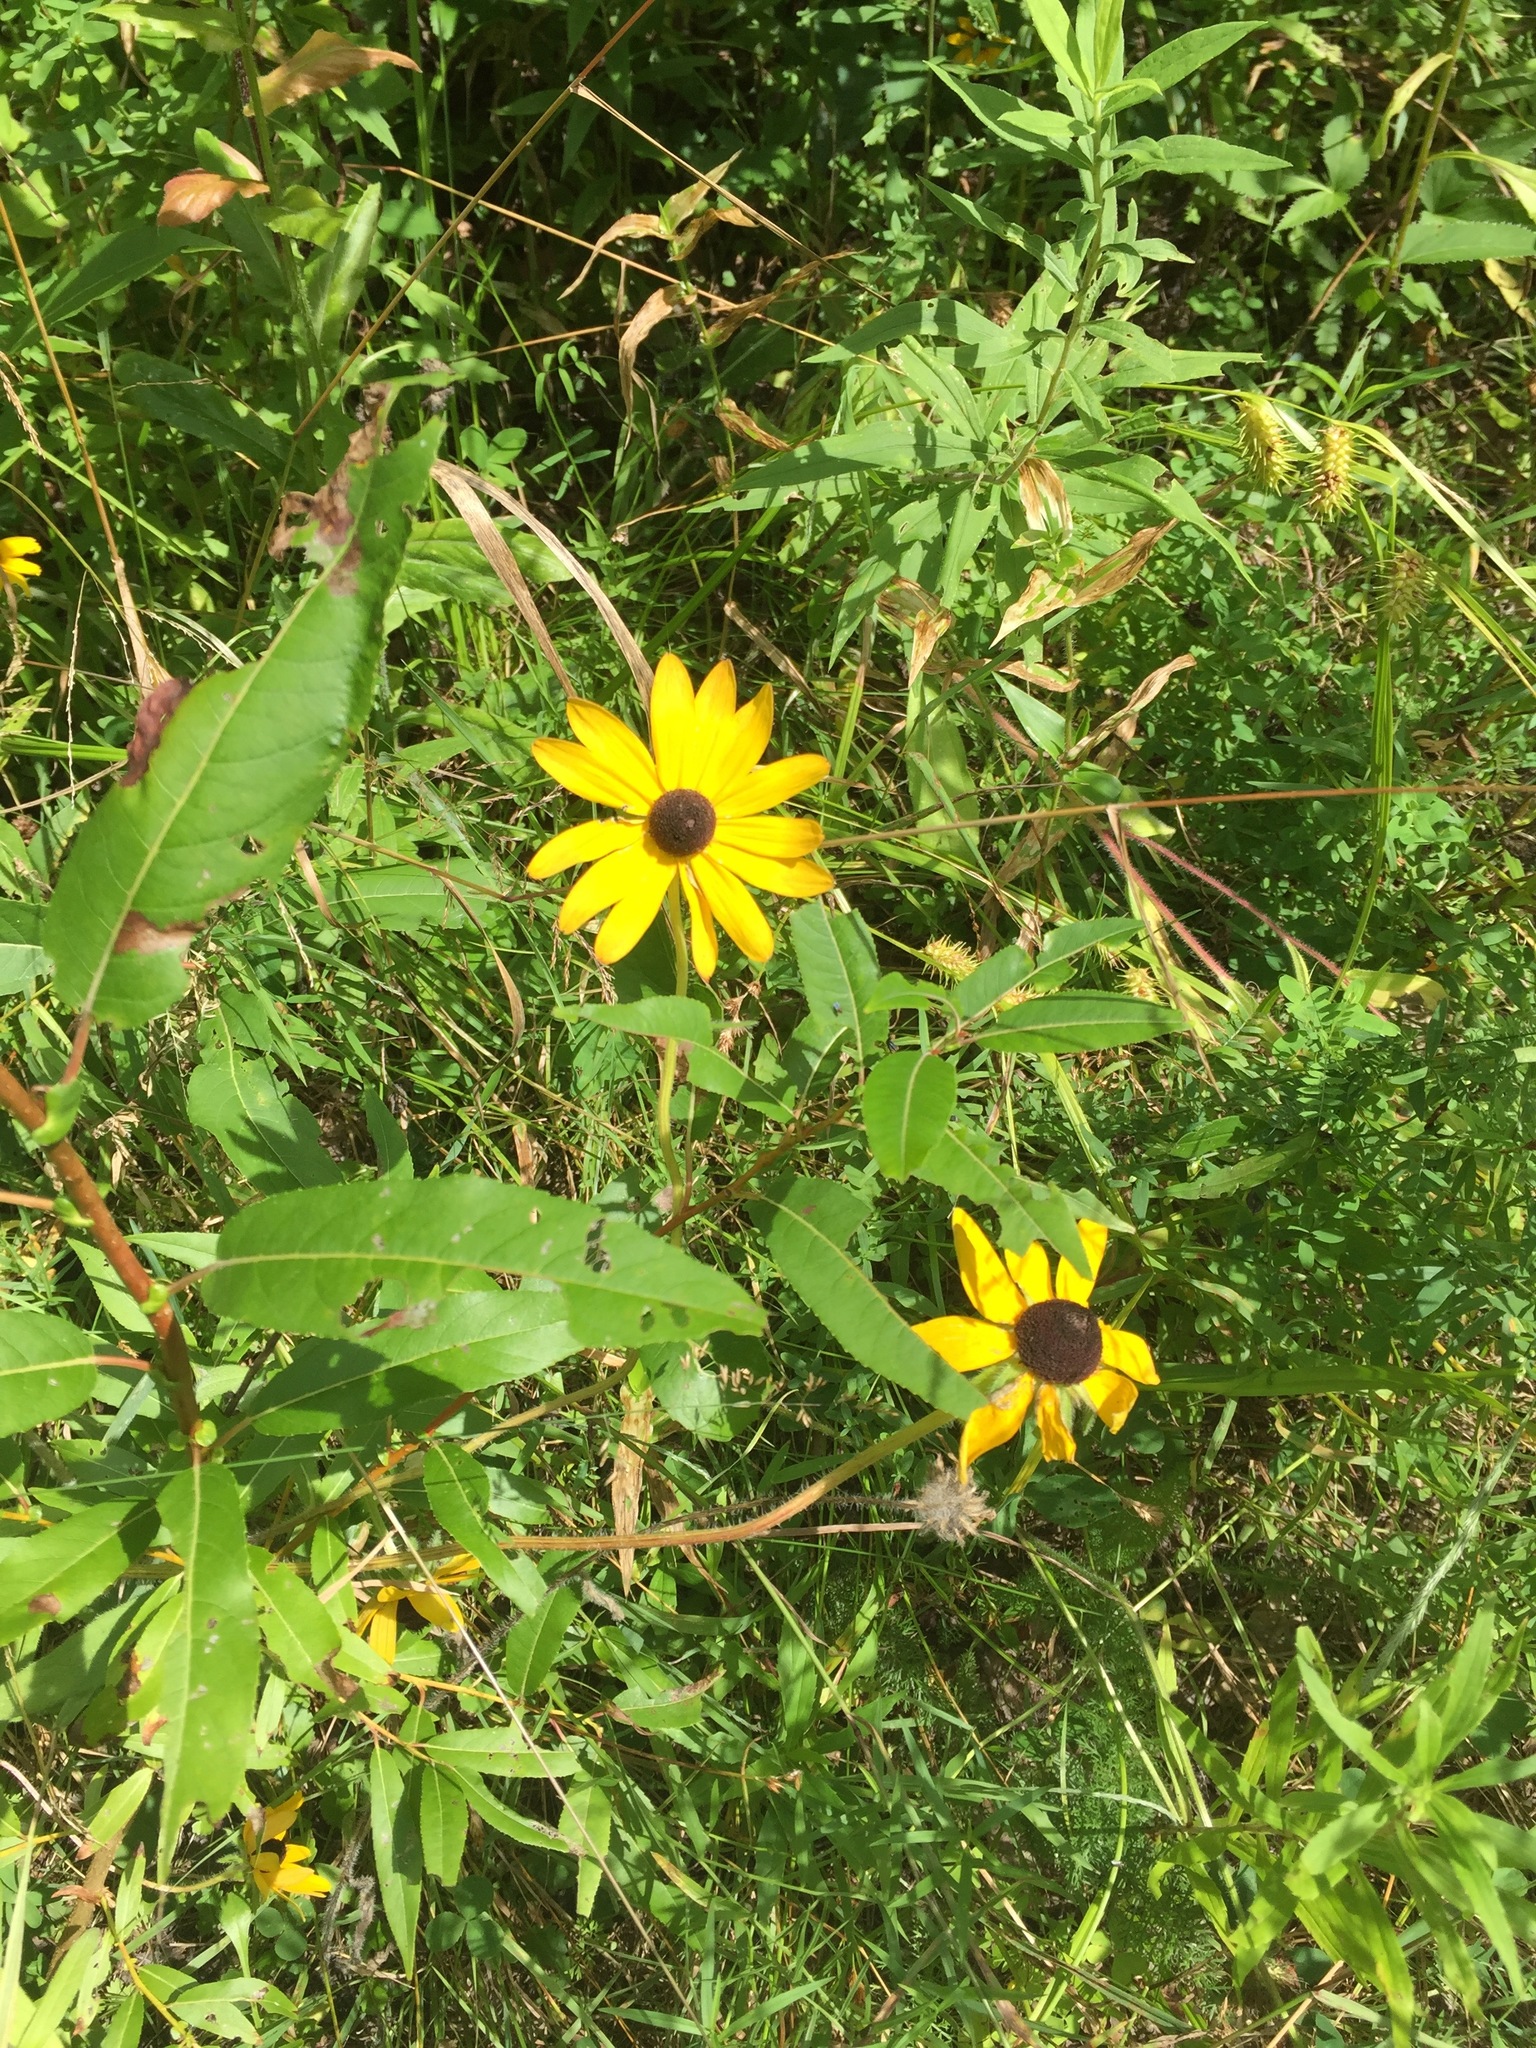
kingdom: Plantae
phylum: Tracheophyta
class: Magnoliopsida
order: Asterales
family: Asteraceae
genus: Rudbeckia
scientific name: Rudbeckia hirta
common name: Black-eyed-susan
